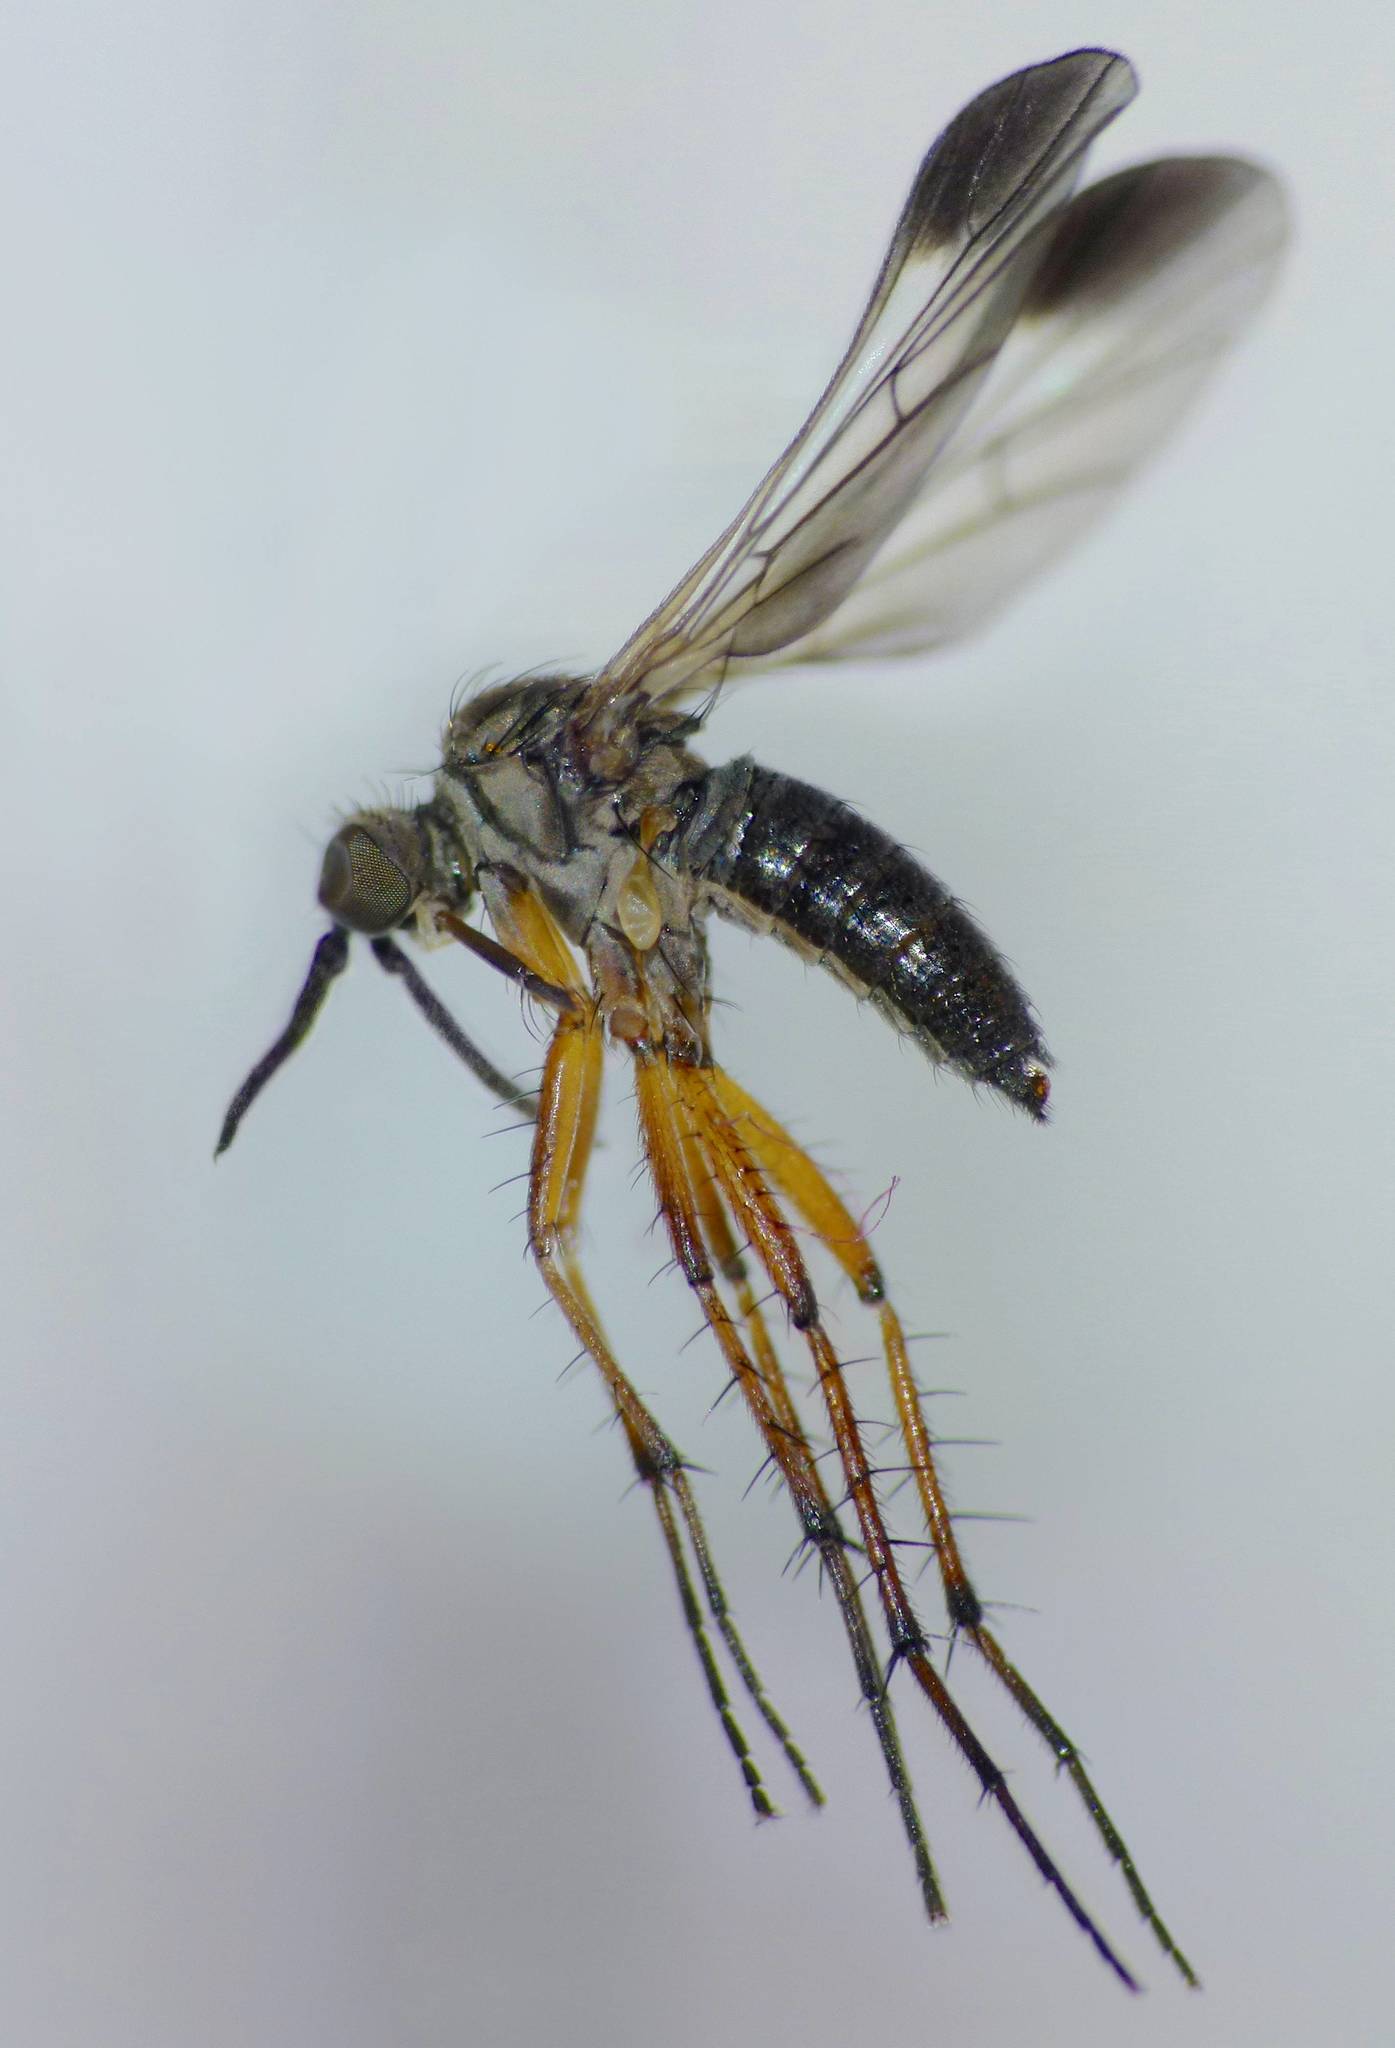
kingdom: Animalia
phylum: Arthropoda
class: Insecta
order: Diptera
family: Empididae
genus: Empidadelpha
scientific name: Empidadelpha pokekeao
